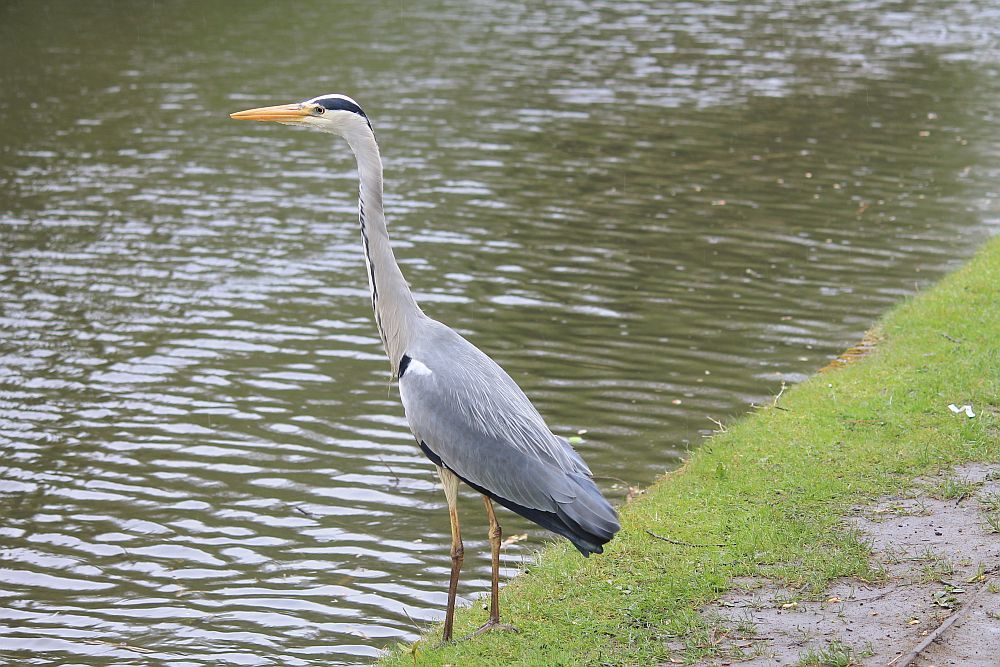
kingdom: Animalia
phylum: Chordata
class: Aves
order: Pelecaniformes
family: Ardeidae
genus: Ardea
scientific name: Ardea cinerea
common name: Grey heron
